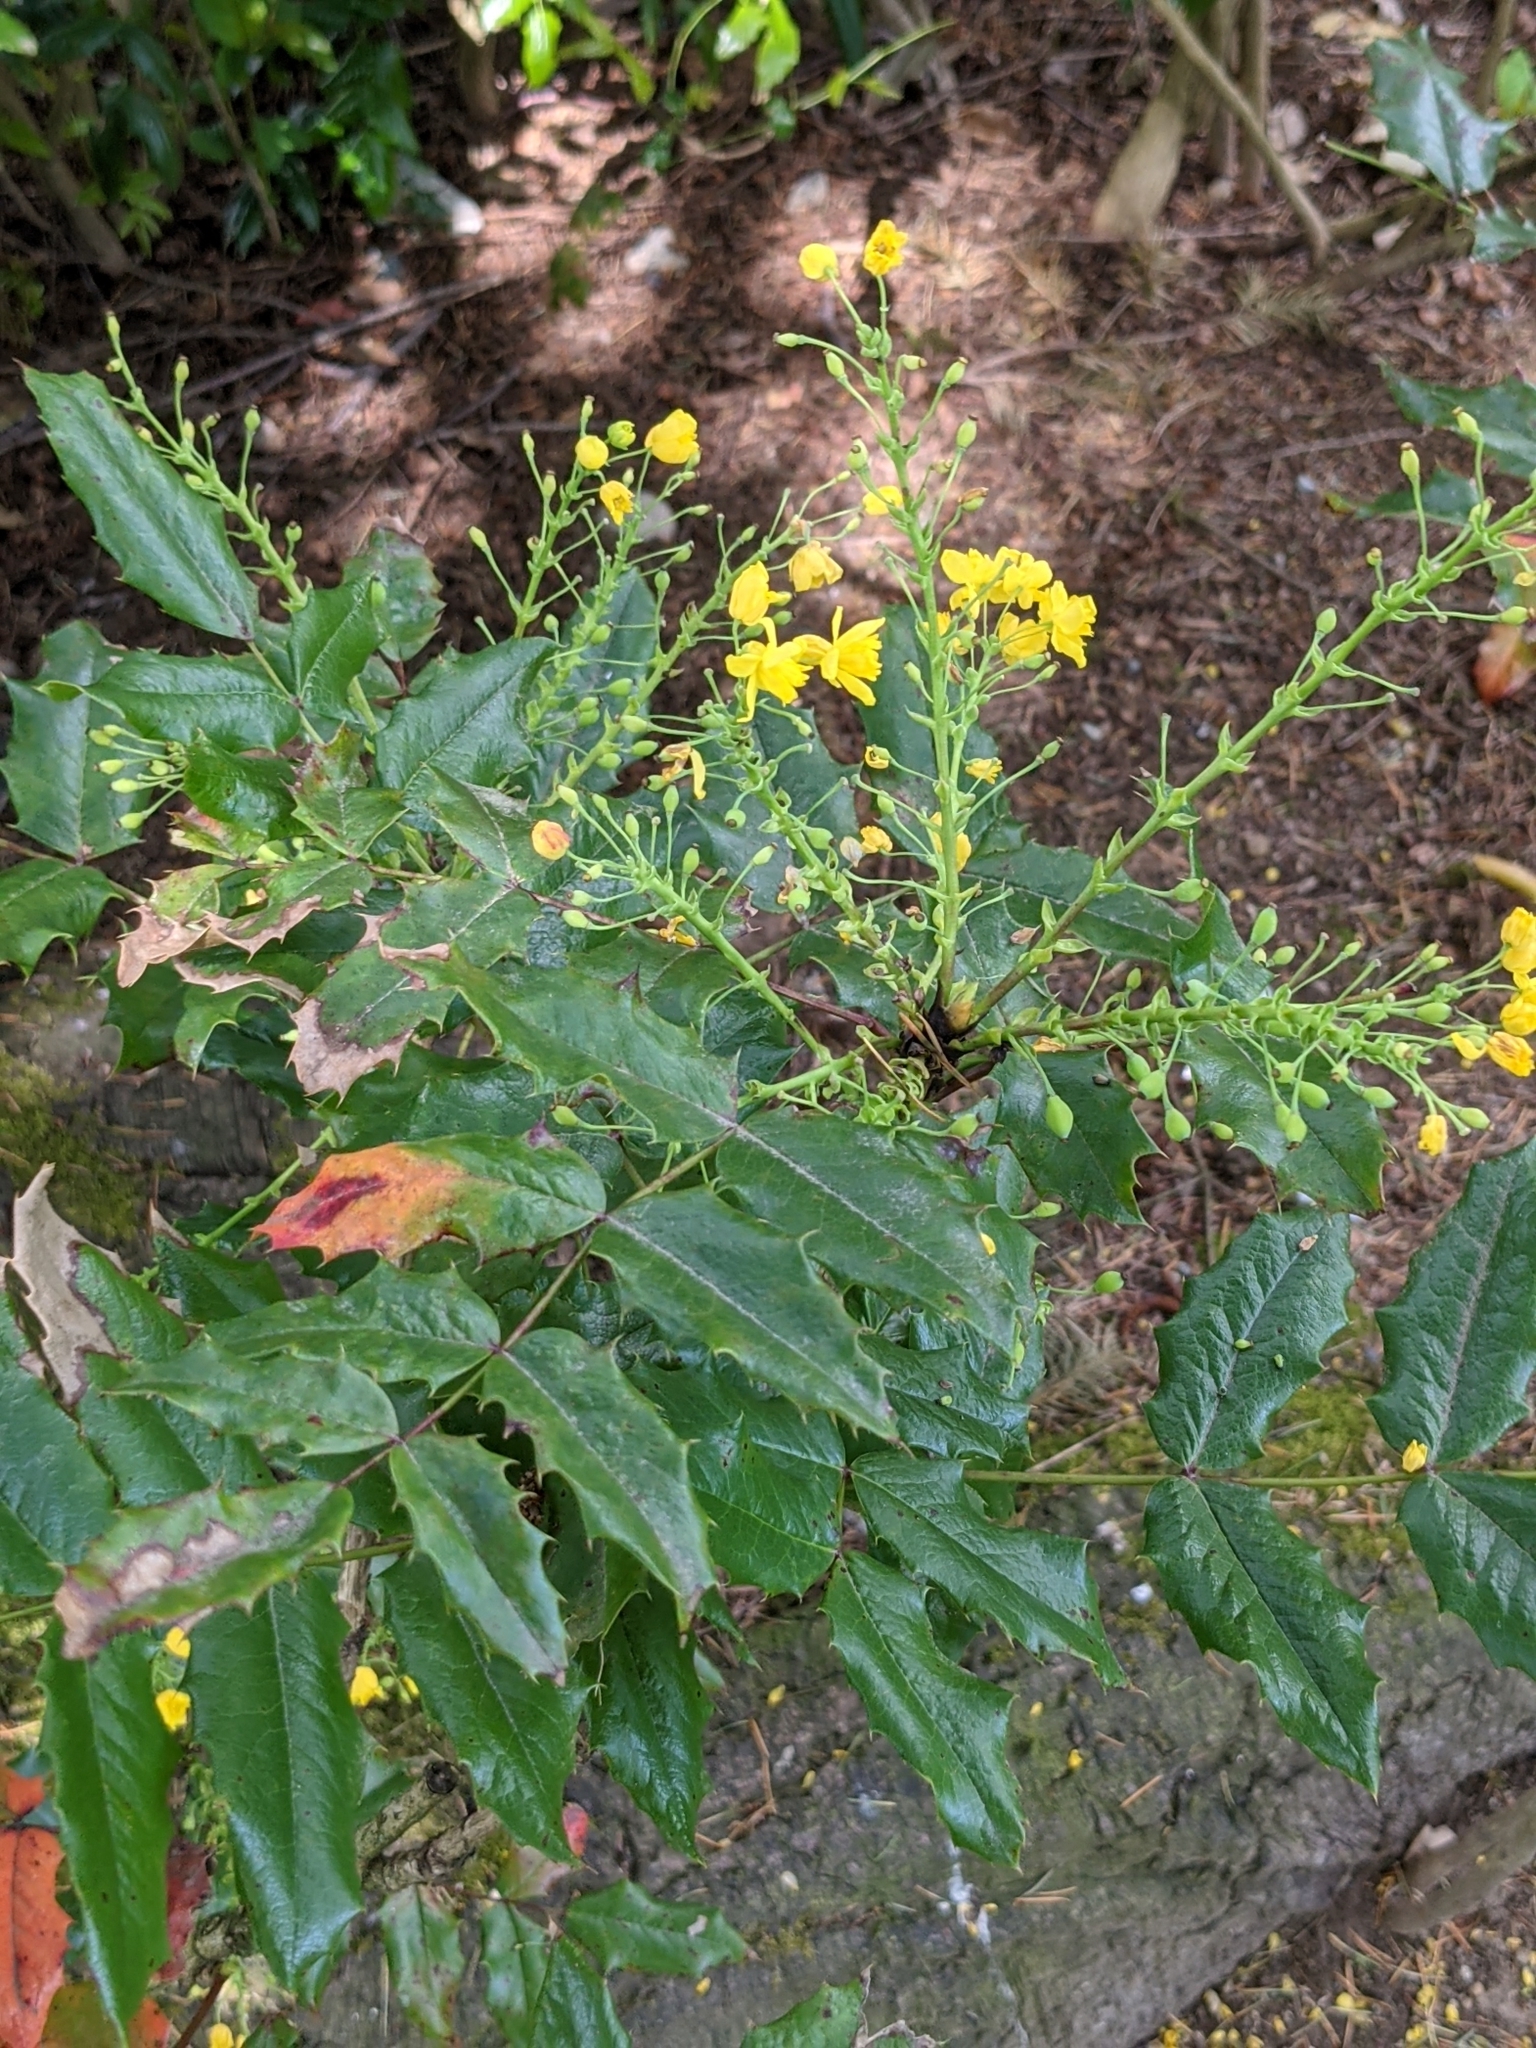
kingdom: Plantae
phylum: Tracheophyta
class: Magnoliopsida
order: Ranunculales
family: Berberidaceae
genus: Mahonia
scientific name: Mahonia aquifolium
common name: Oregon-grape
